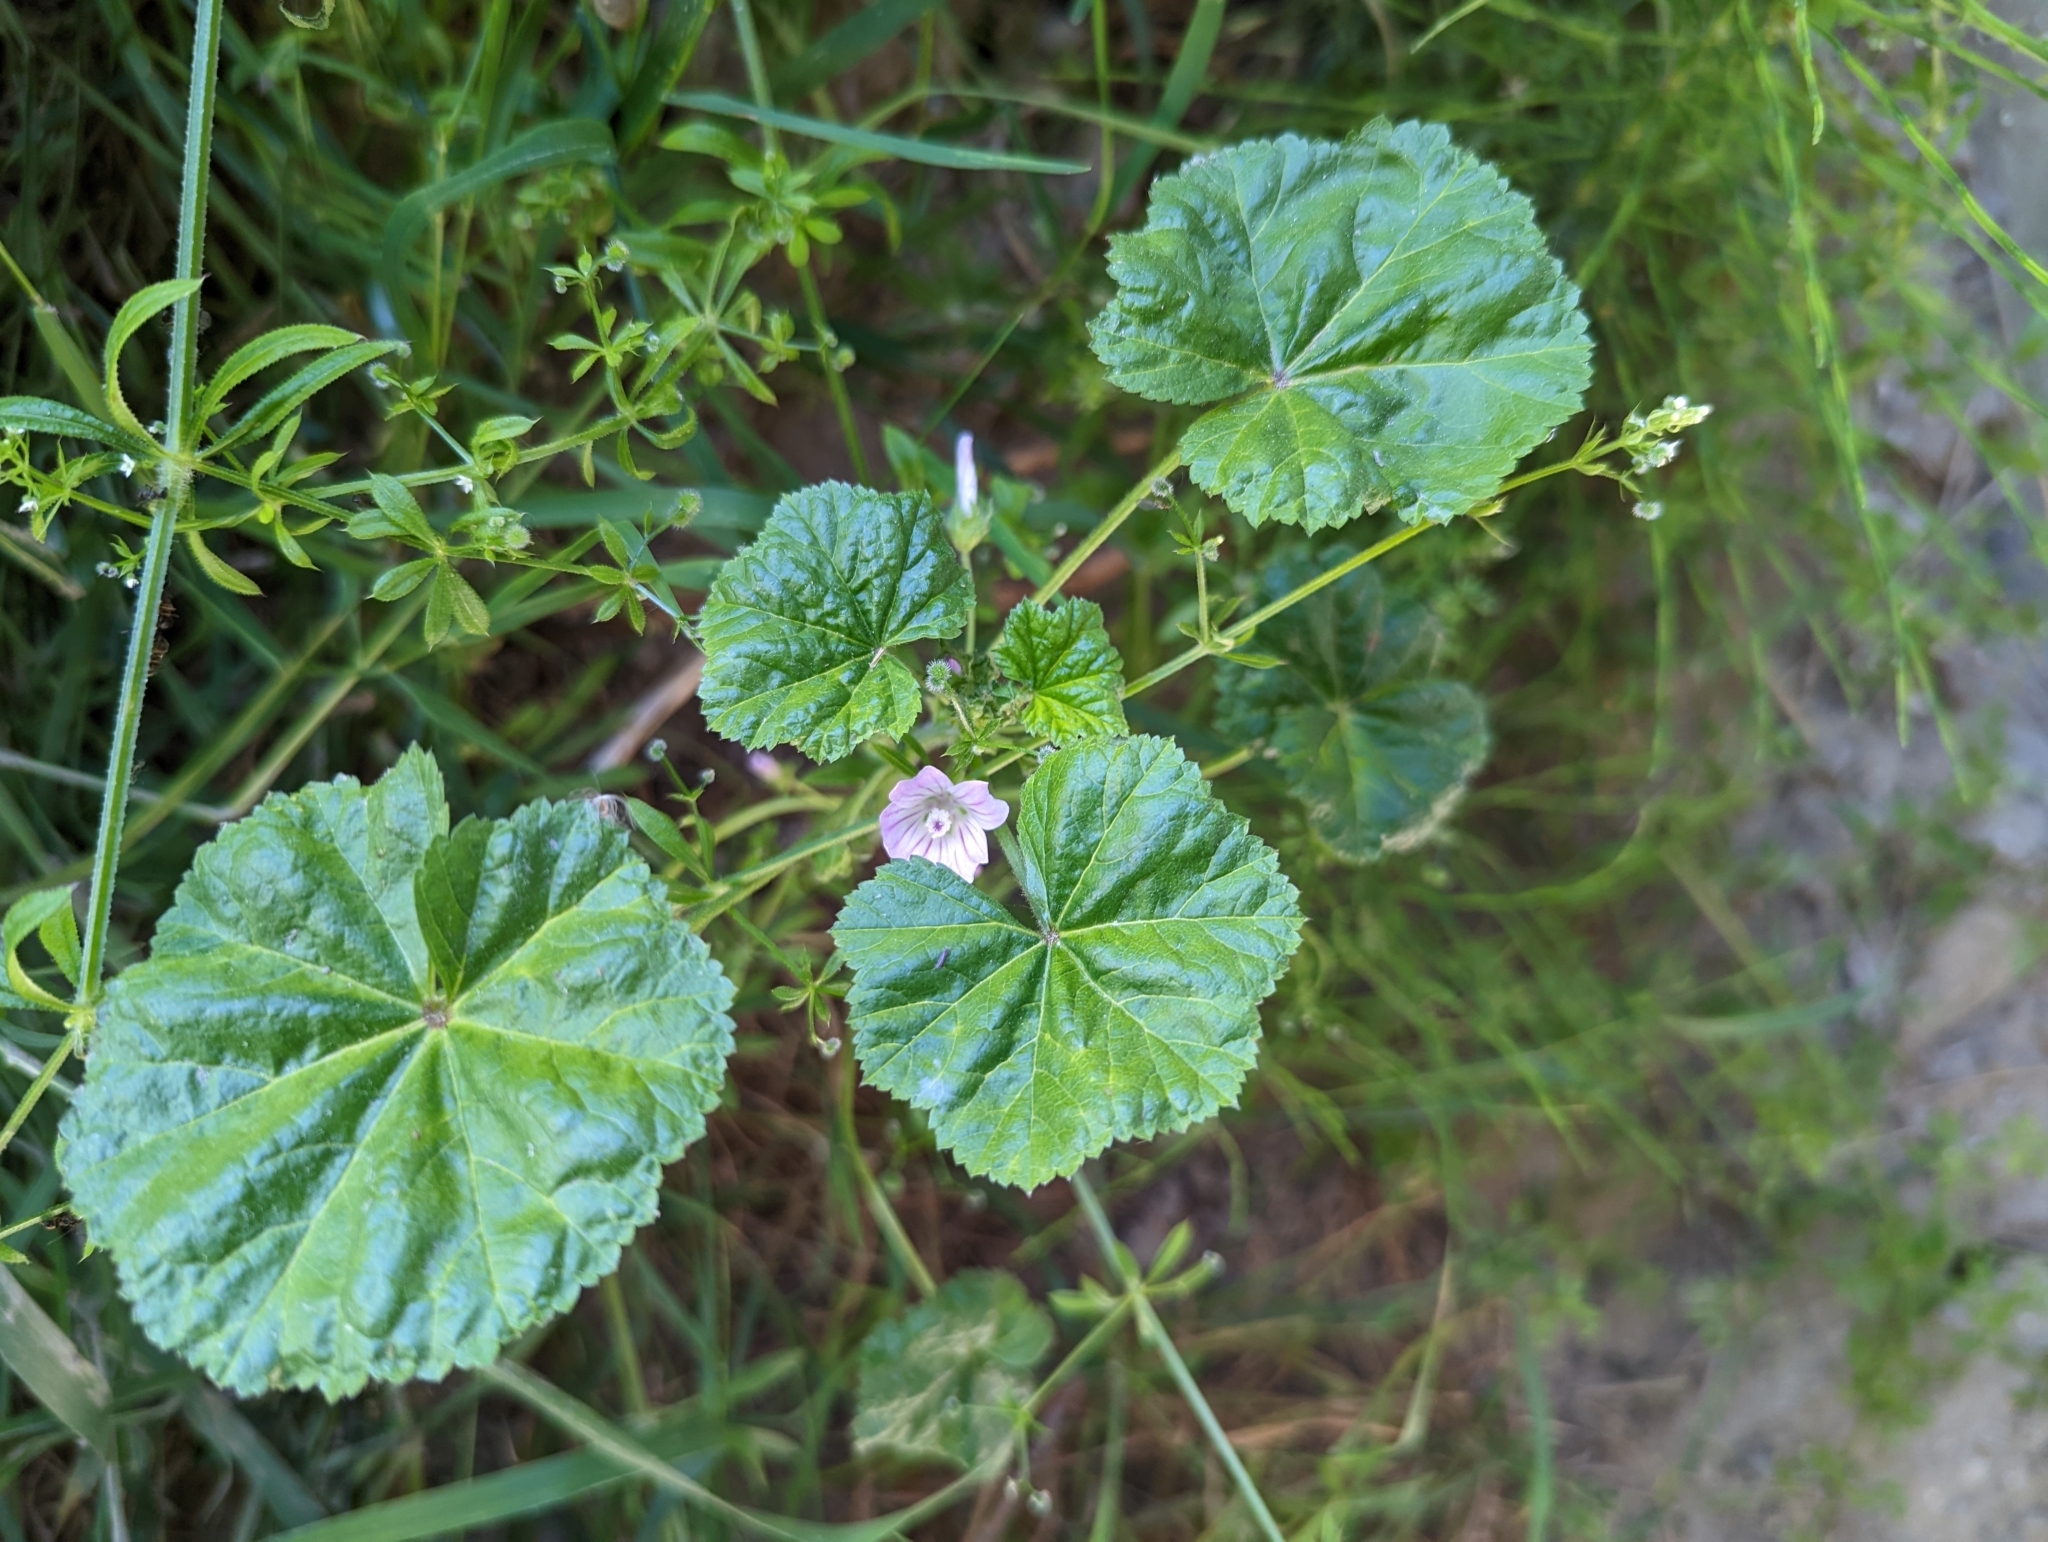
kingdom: Plantae
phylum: Tracheophyta
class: Magnoliopsida
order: Malvales
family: Malvaceae
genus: Malva
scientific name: Malva neglecta
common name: Common mallow
